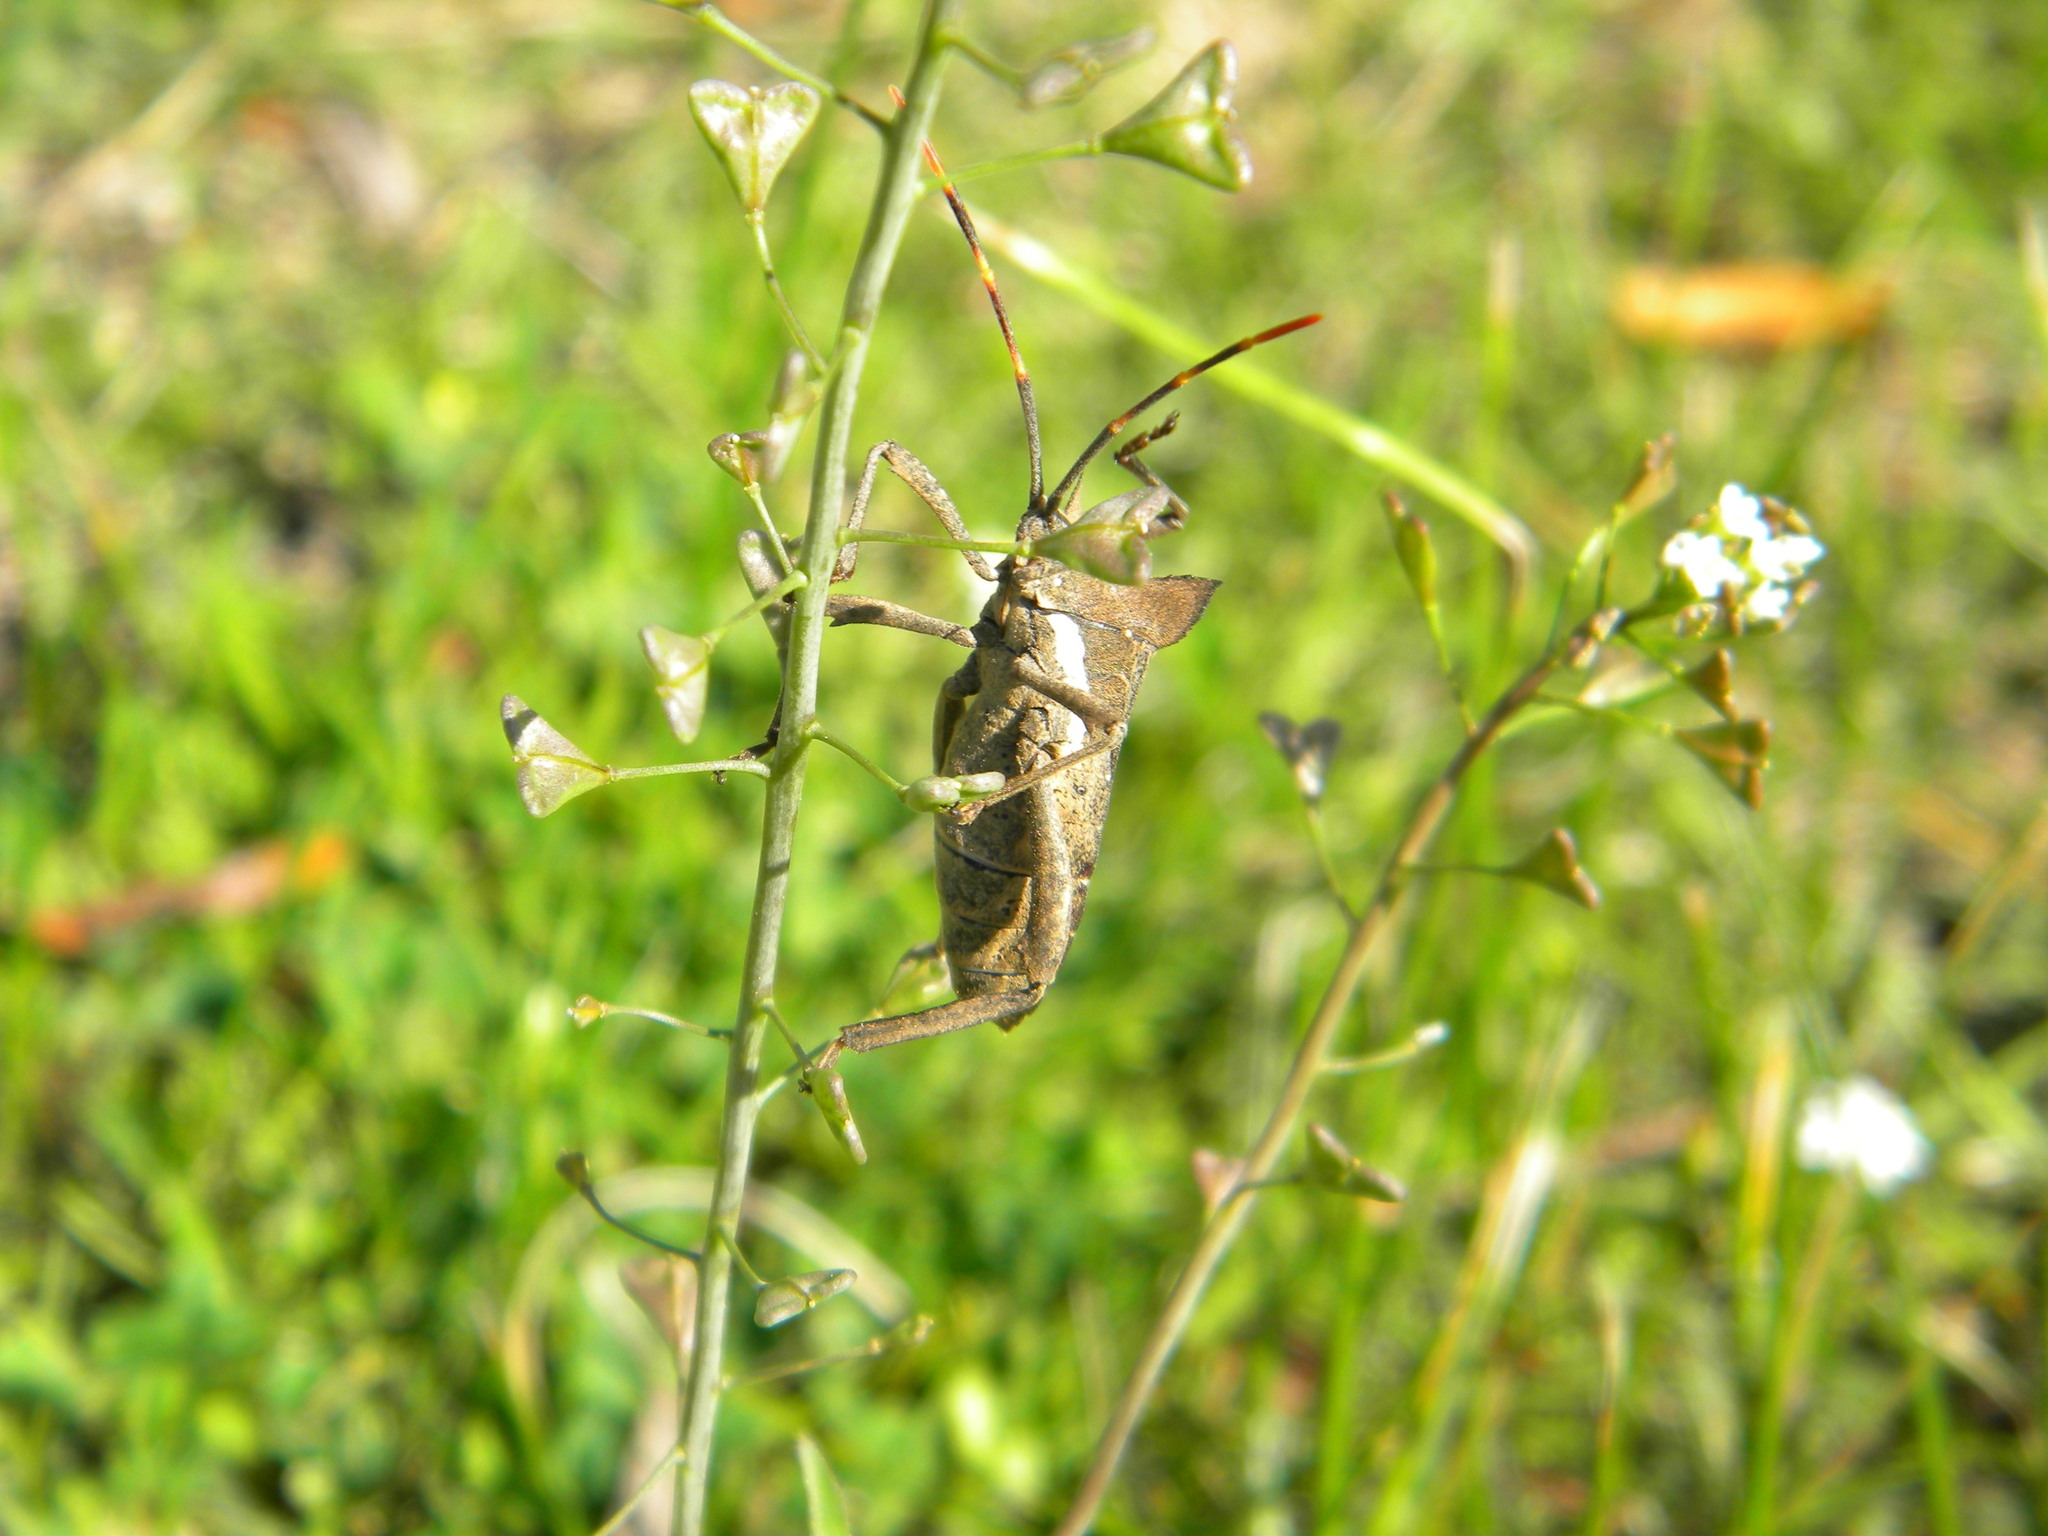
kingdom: Animalia
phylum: Arthropoda
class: Insecta
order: Hemiptera
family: Coreidae
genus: Elasmopoda
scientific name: Elasmopoda valga
